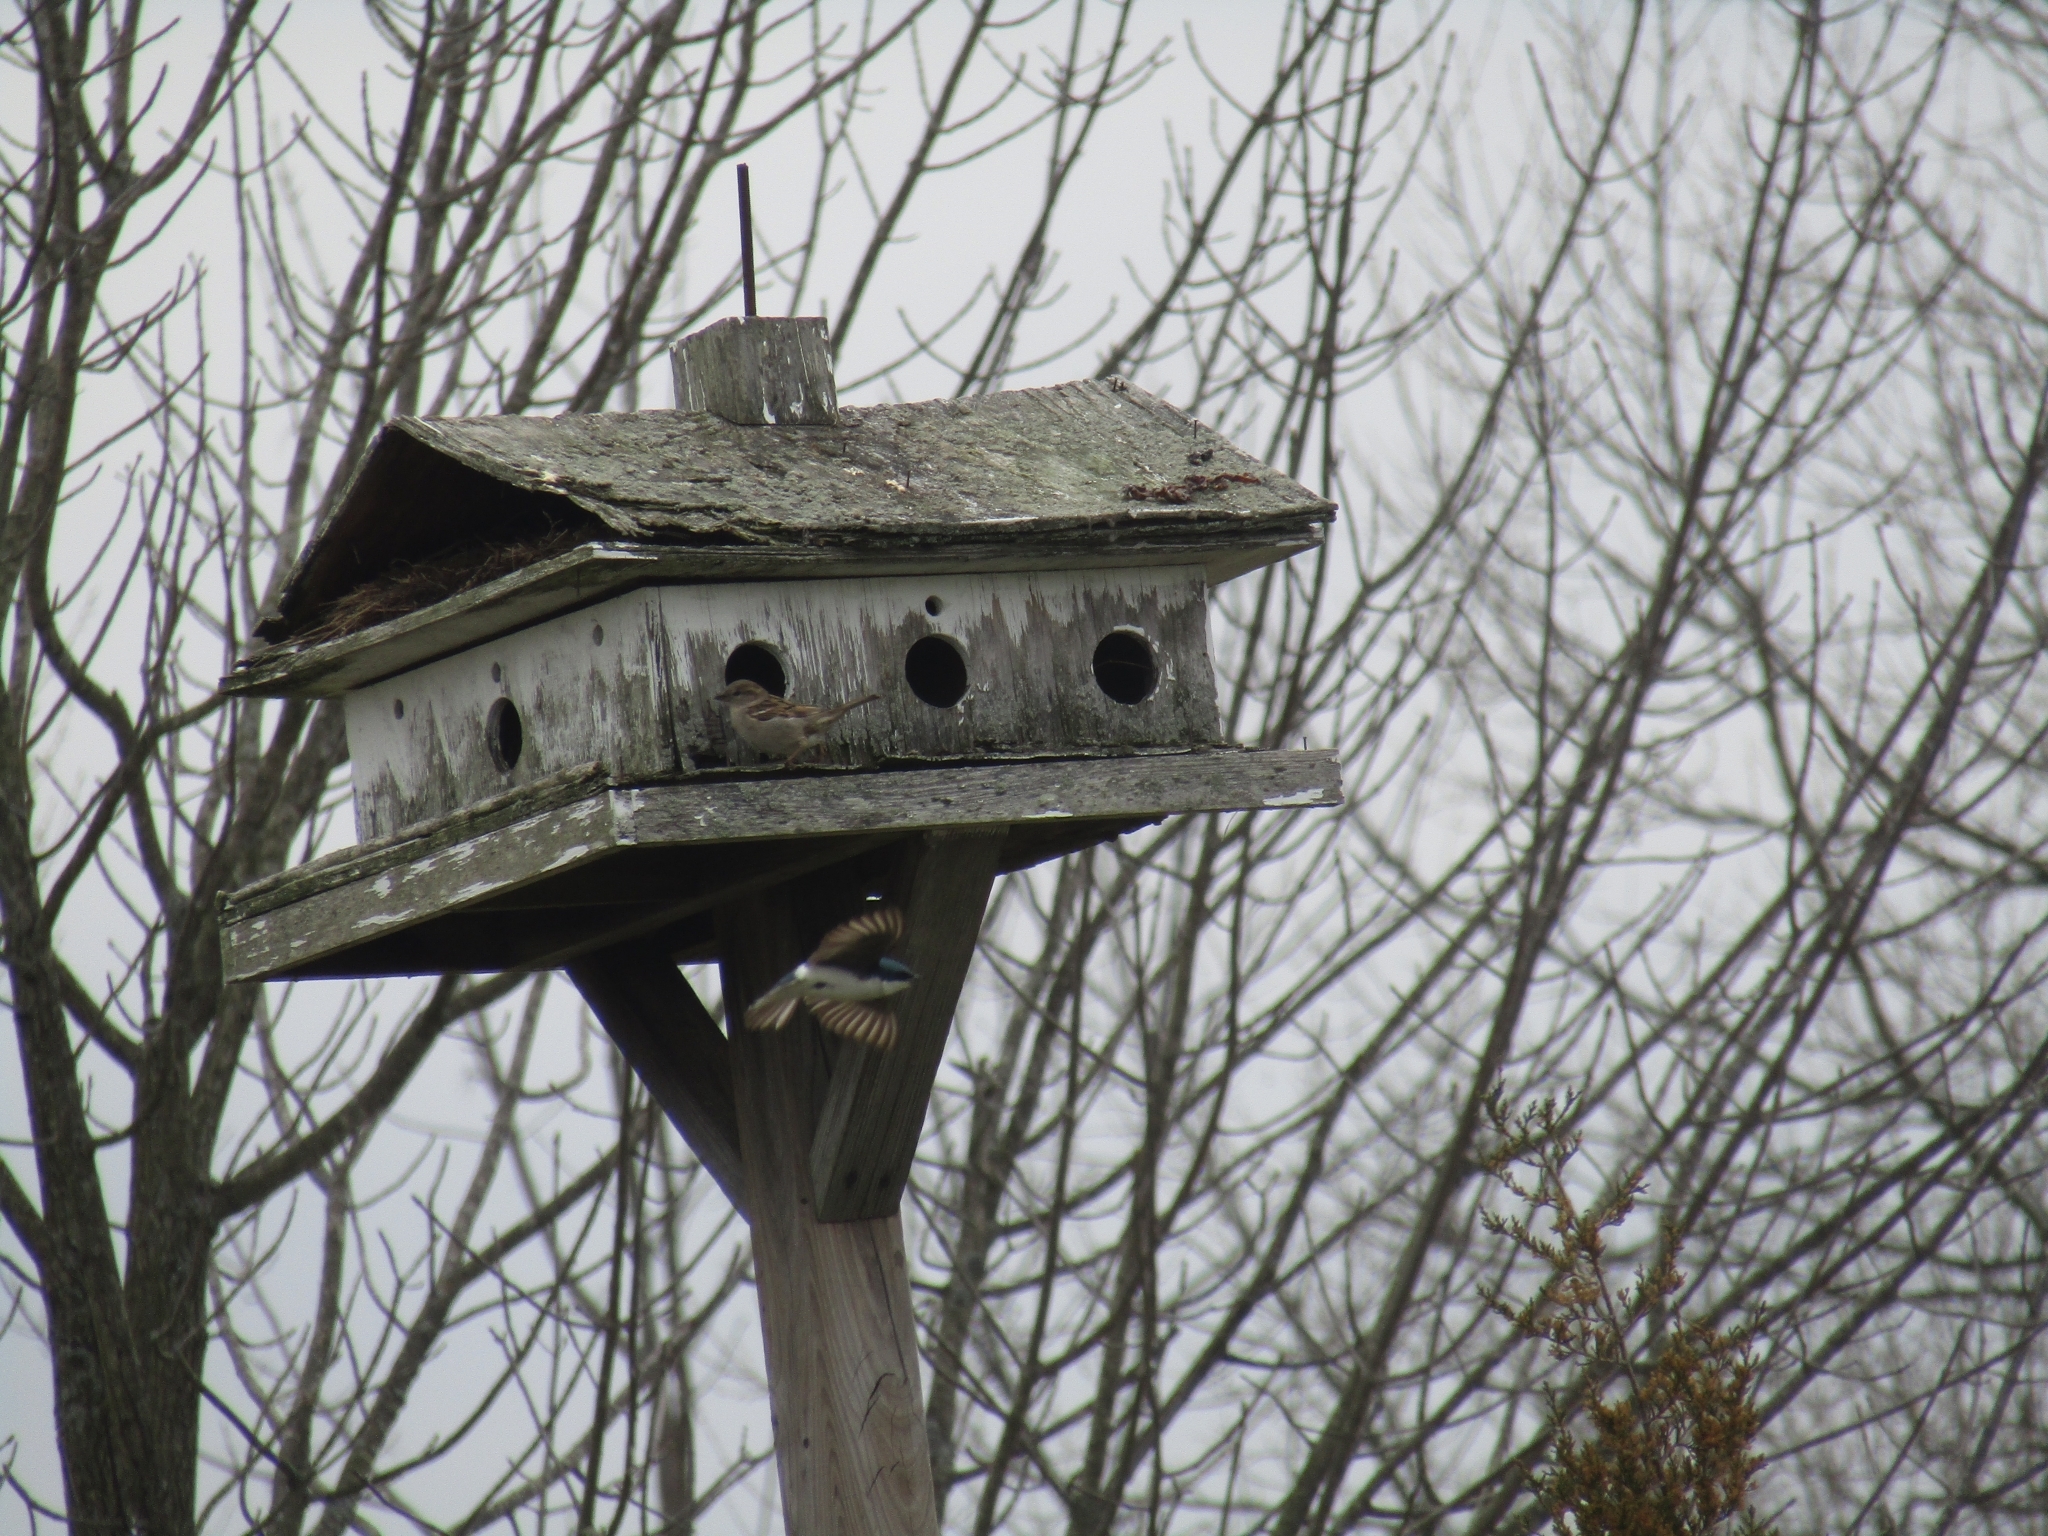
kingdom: Animalia
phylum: Chordata
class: Aves
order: Passeriformes
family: Hirundinidae
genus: Tachycineta
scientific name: Tachycineta bicolor
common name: Tree swallow
